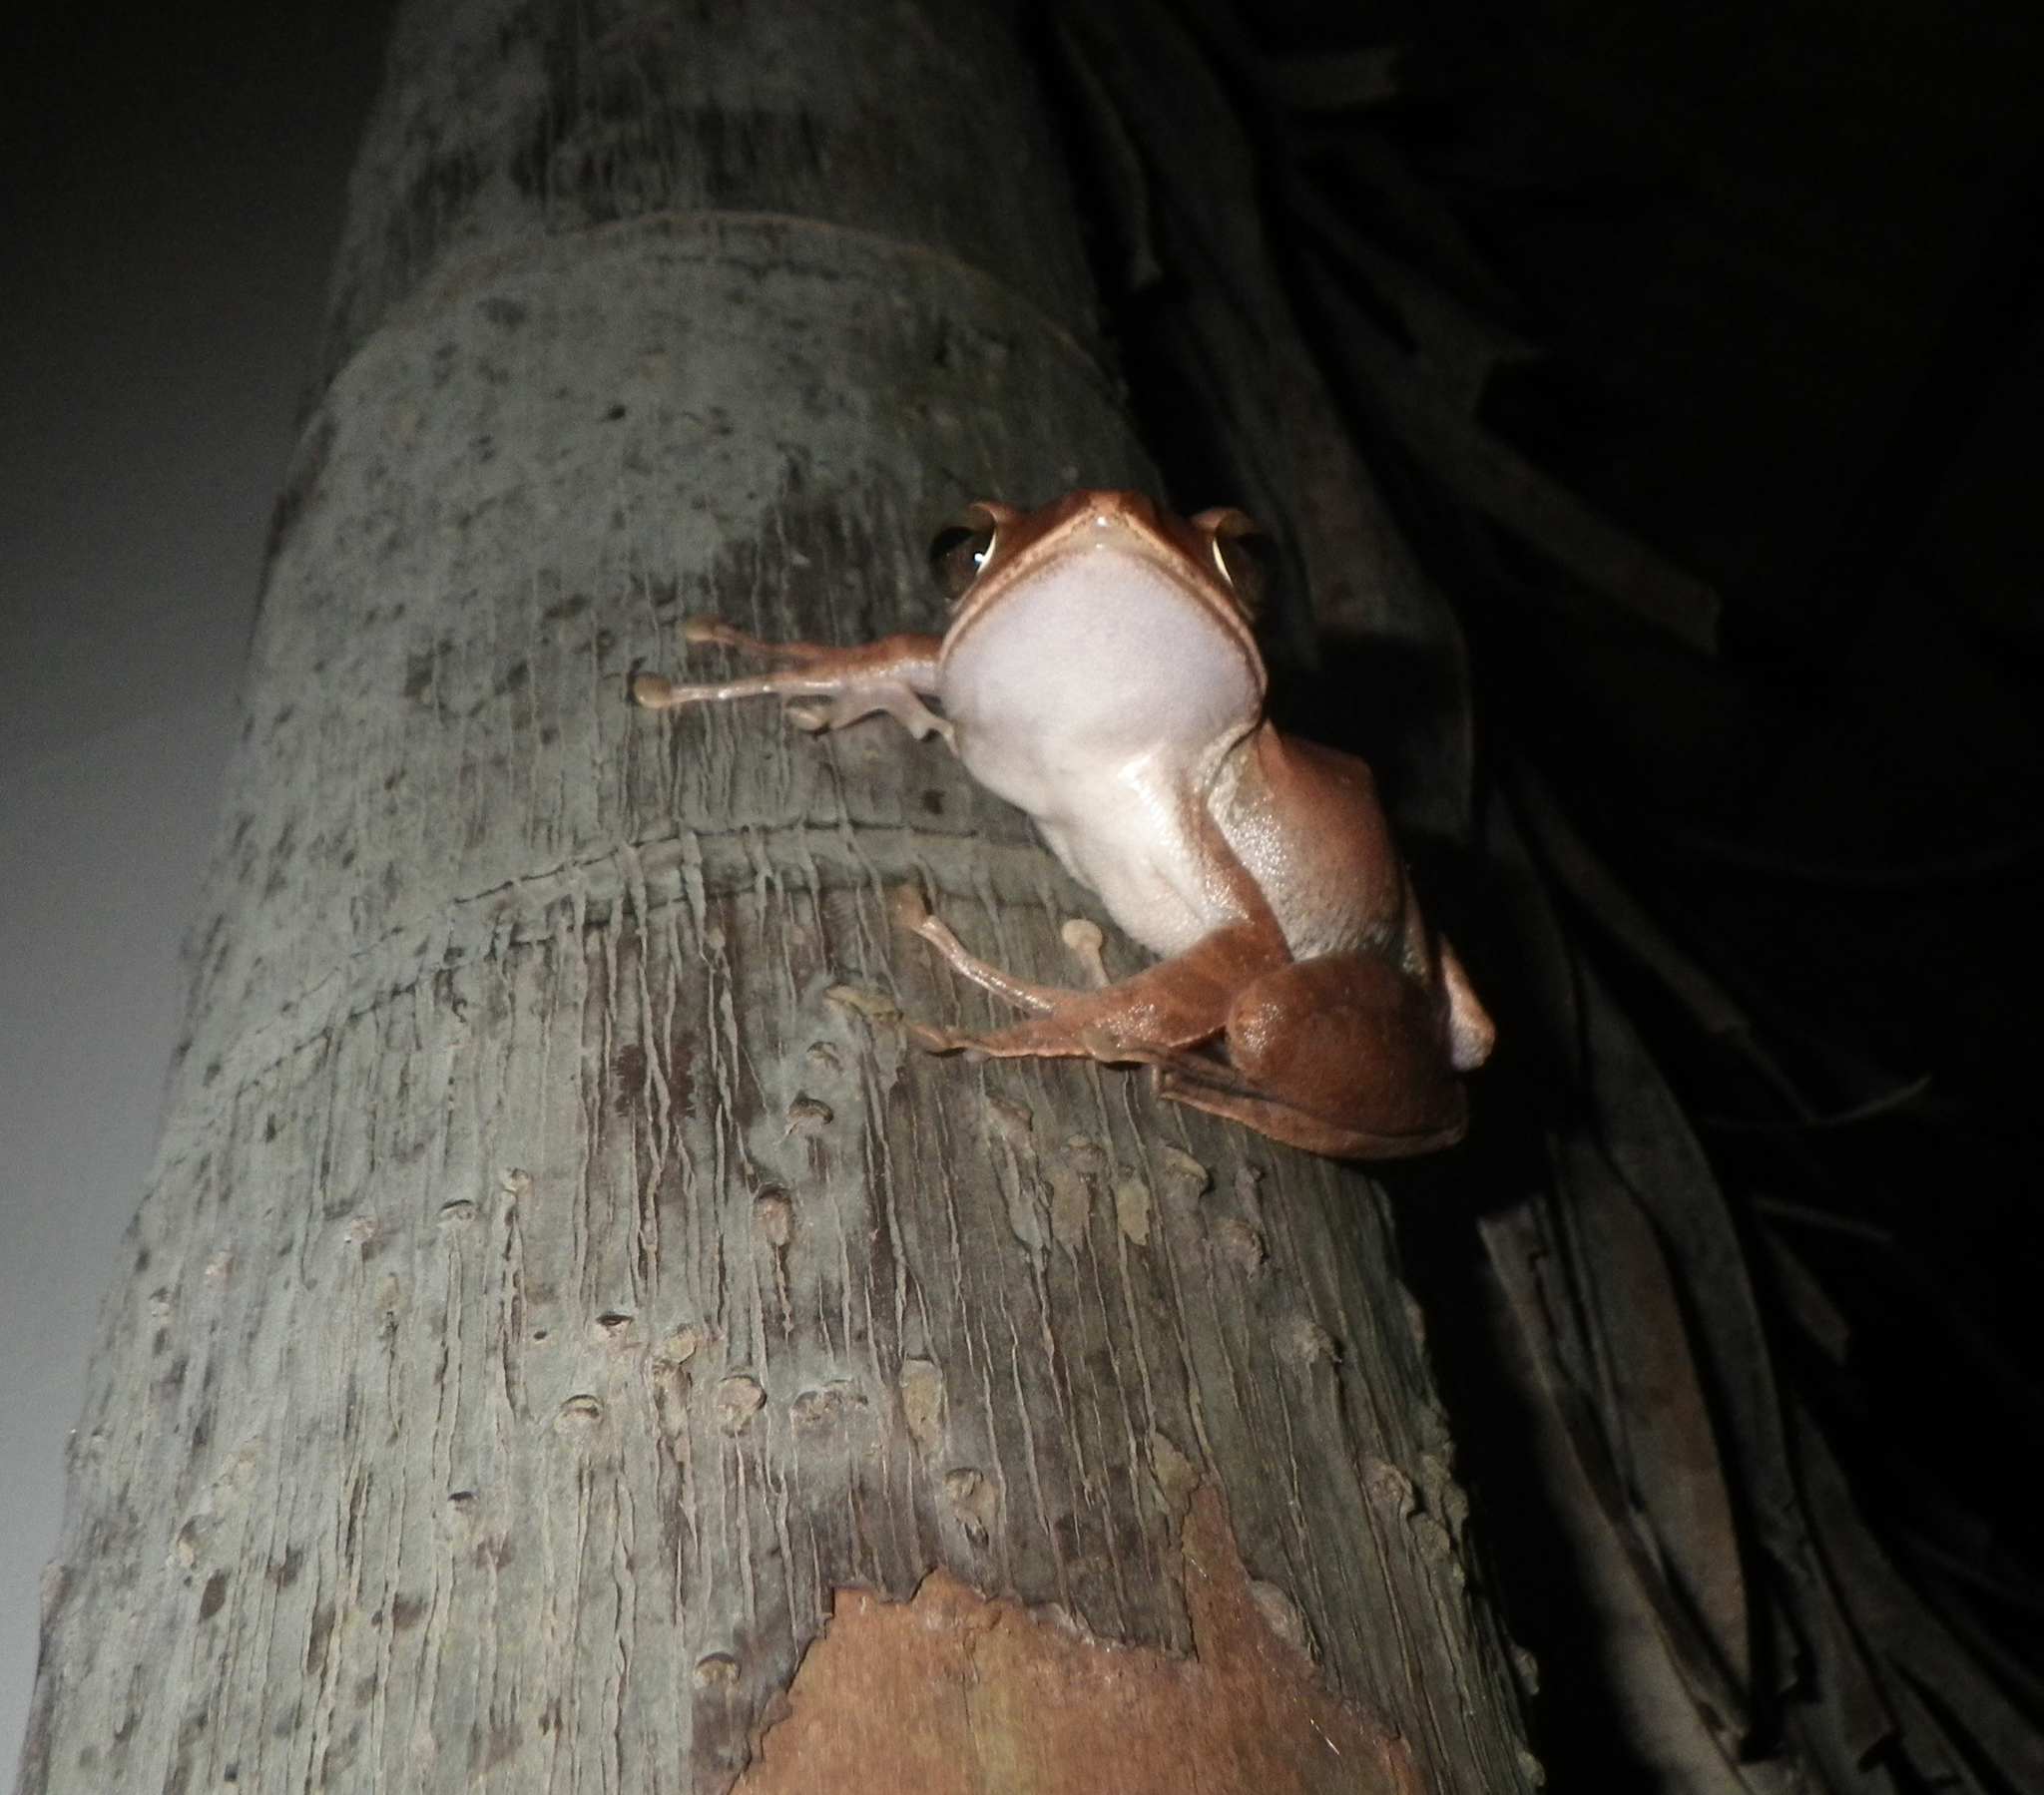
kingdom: Animalia
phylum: Chordata
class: Amphibia
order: Anura
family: Rhacophoridae
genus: Polypedates
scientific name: Polypedates megacephalus
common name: Hong kong whipping frog
